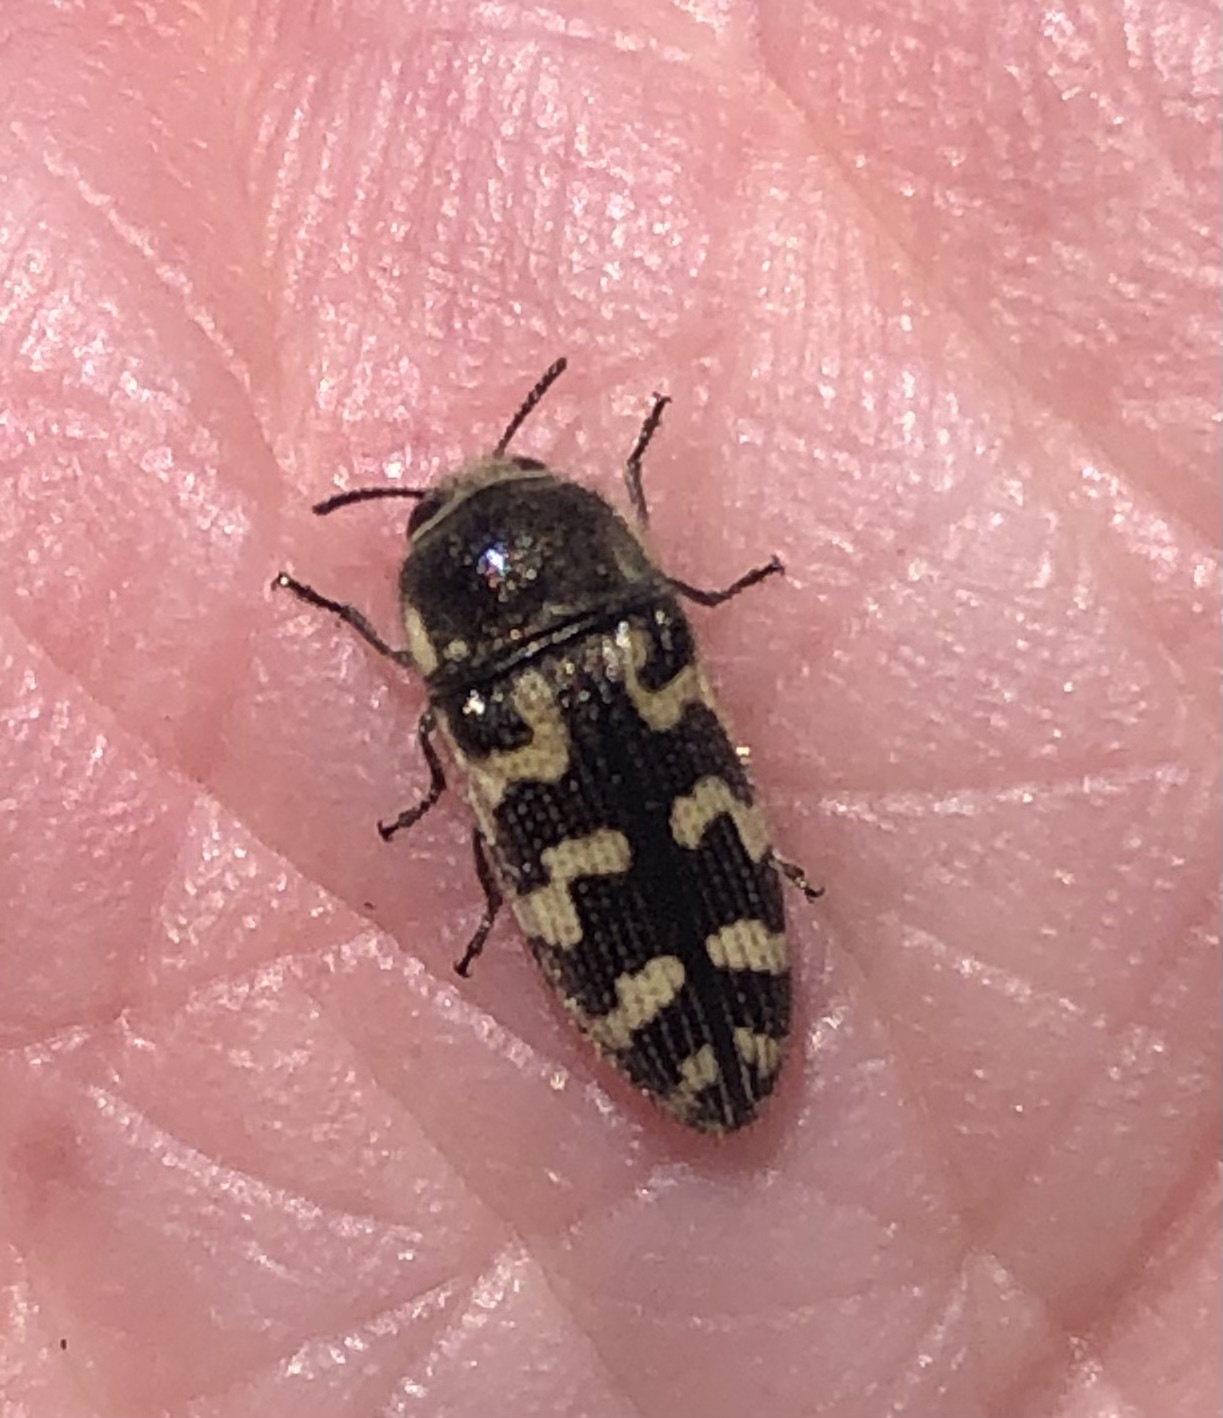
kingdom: Animalia
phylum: Arthropoda
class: Insecta
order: Coleoptera
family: Buprestidae
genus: Acmaeodera
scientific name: Acmaeodera mixta
